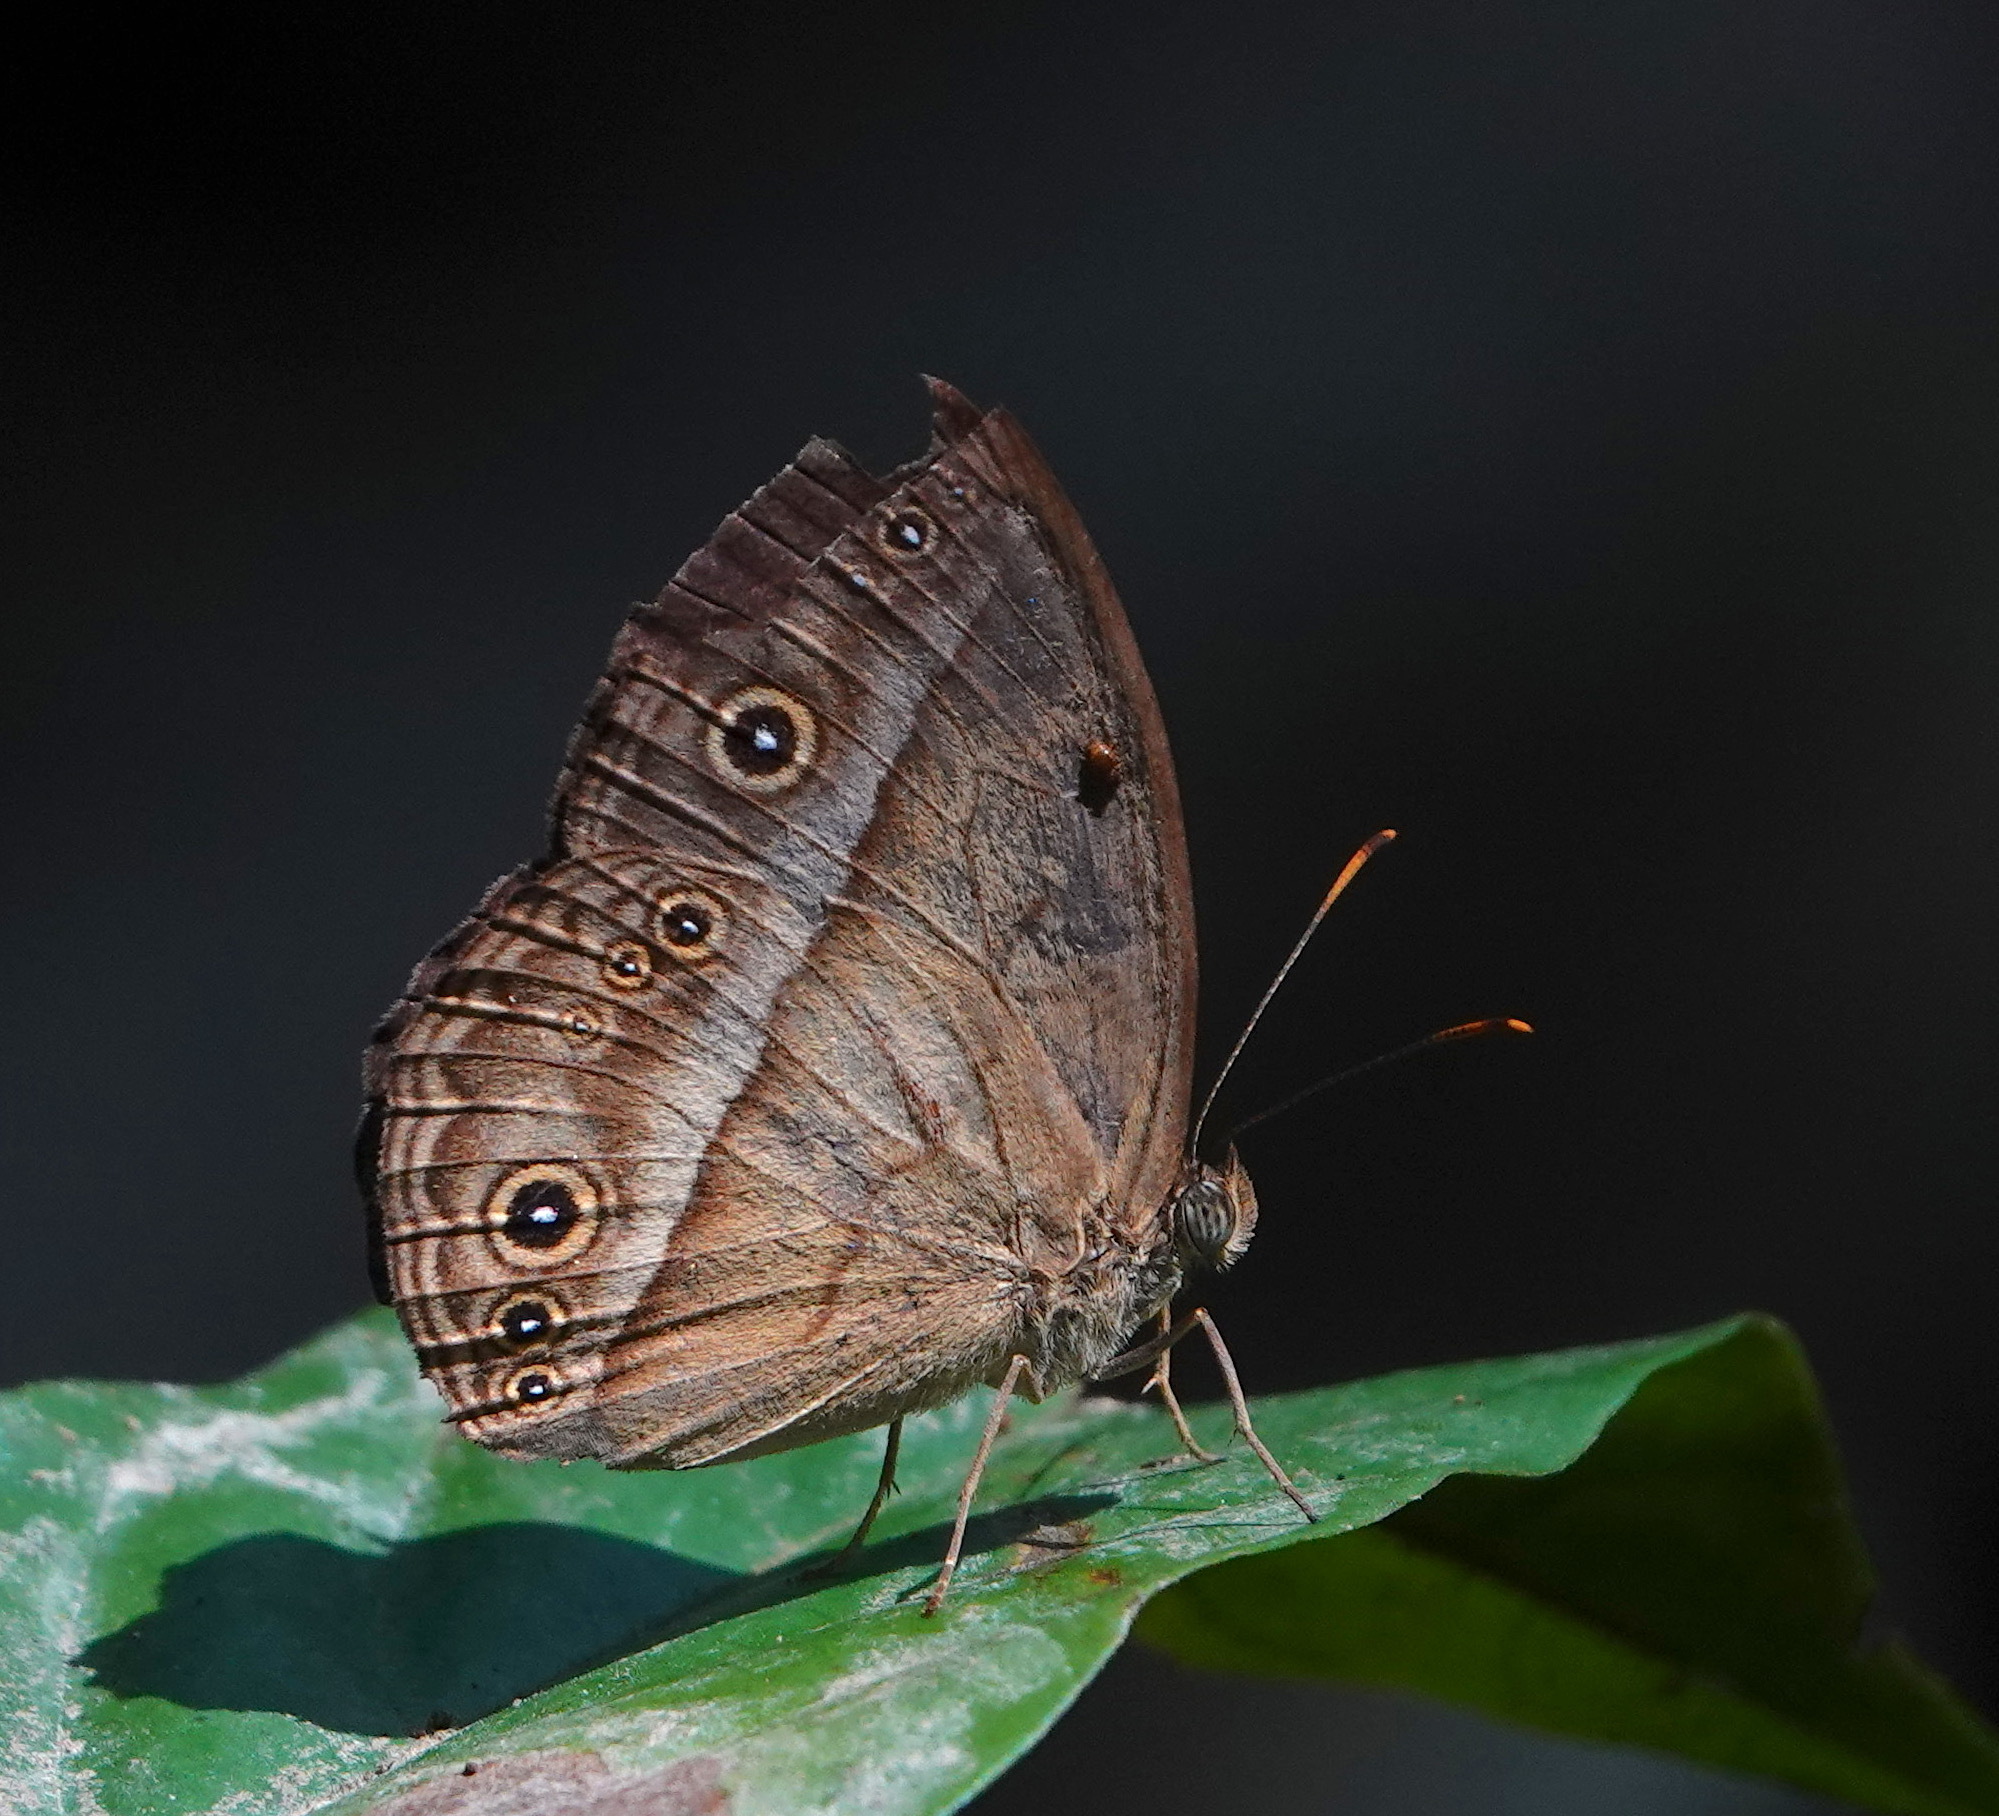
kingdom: Animalia
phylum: Arthropoda
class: Insecta
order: Lepidoptera
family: Nymphalidae
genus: Mycalesis
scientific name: Mycalesis orseis
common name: Purple bushbrown
